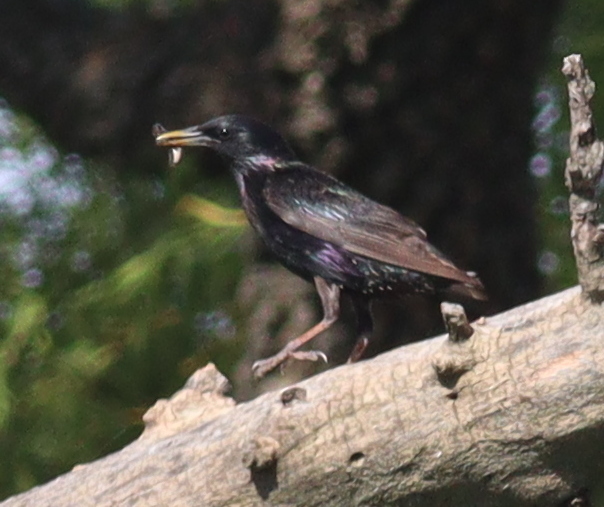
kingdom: Animalia
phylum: Chordata
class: Aves
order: Passeriformes
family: Sturnidae
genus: Sturnus
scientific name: Sturnus vulgaris
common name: Common starling
